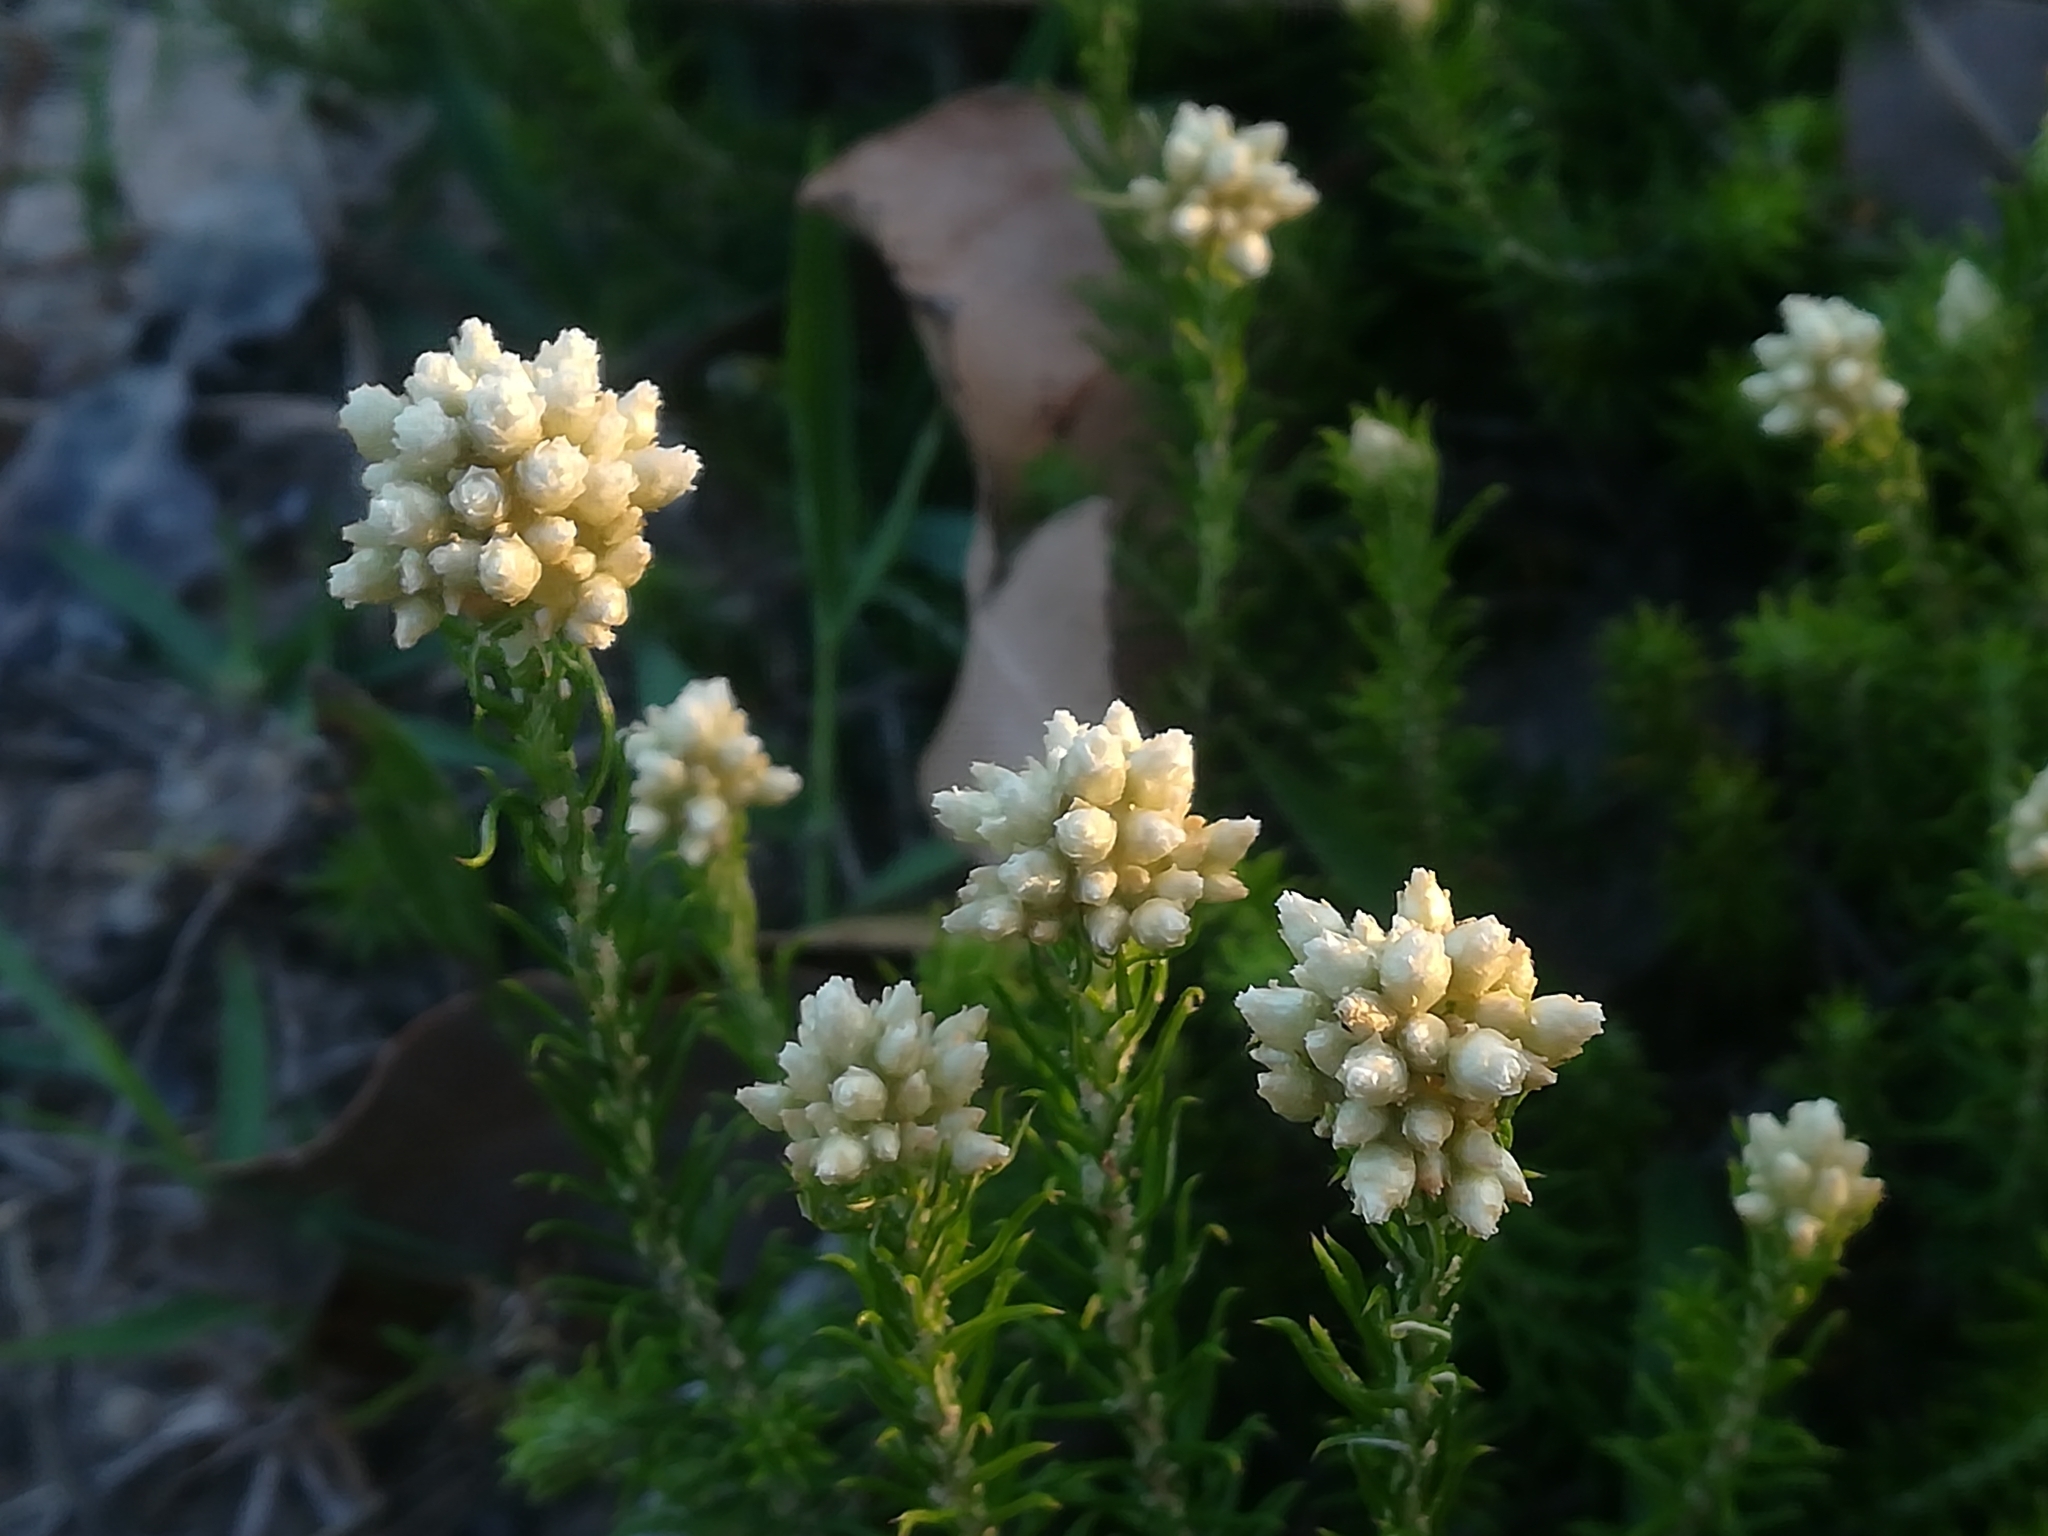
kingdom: Plantae
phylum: Tracheophyta
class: Magnoliopsida
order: Asterales
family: Asteraceae
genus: Helichrysum
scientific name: Helichrysum teretifolium
